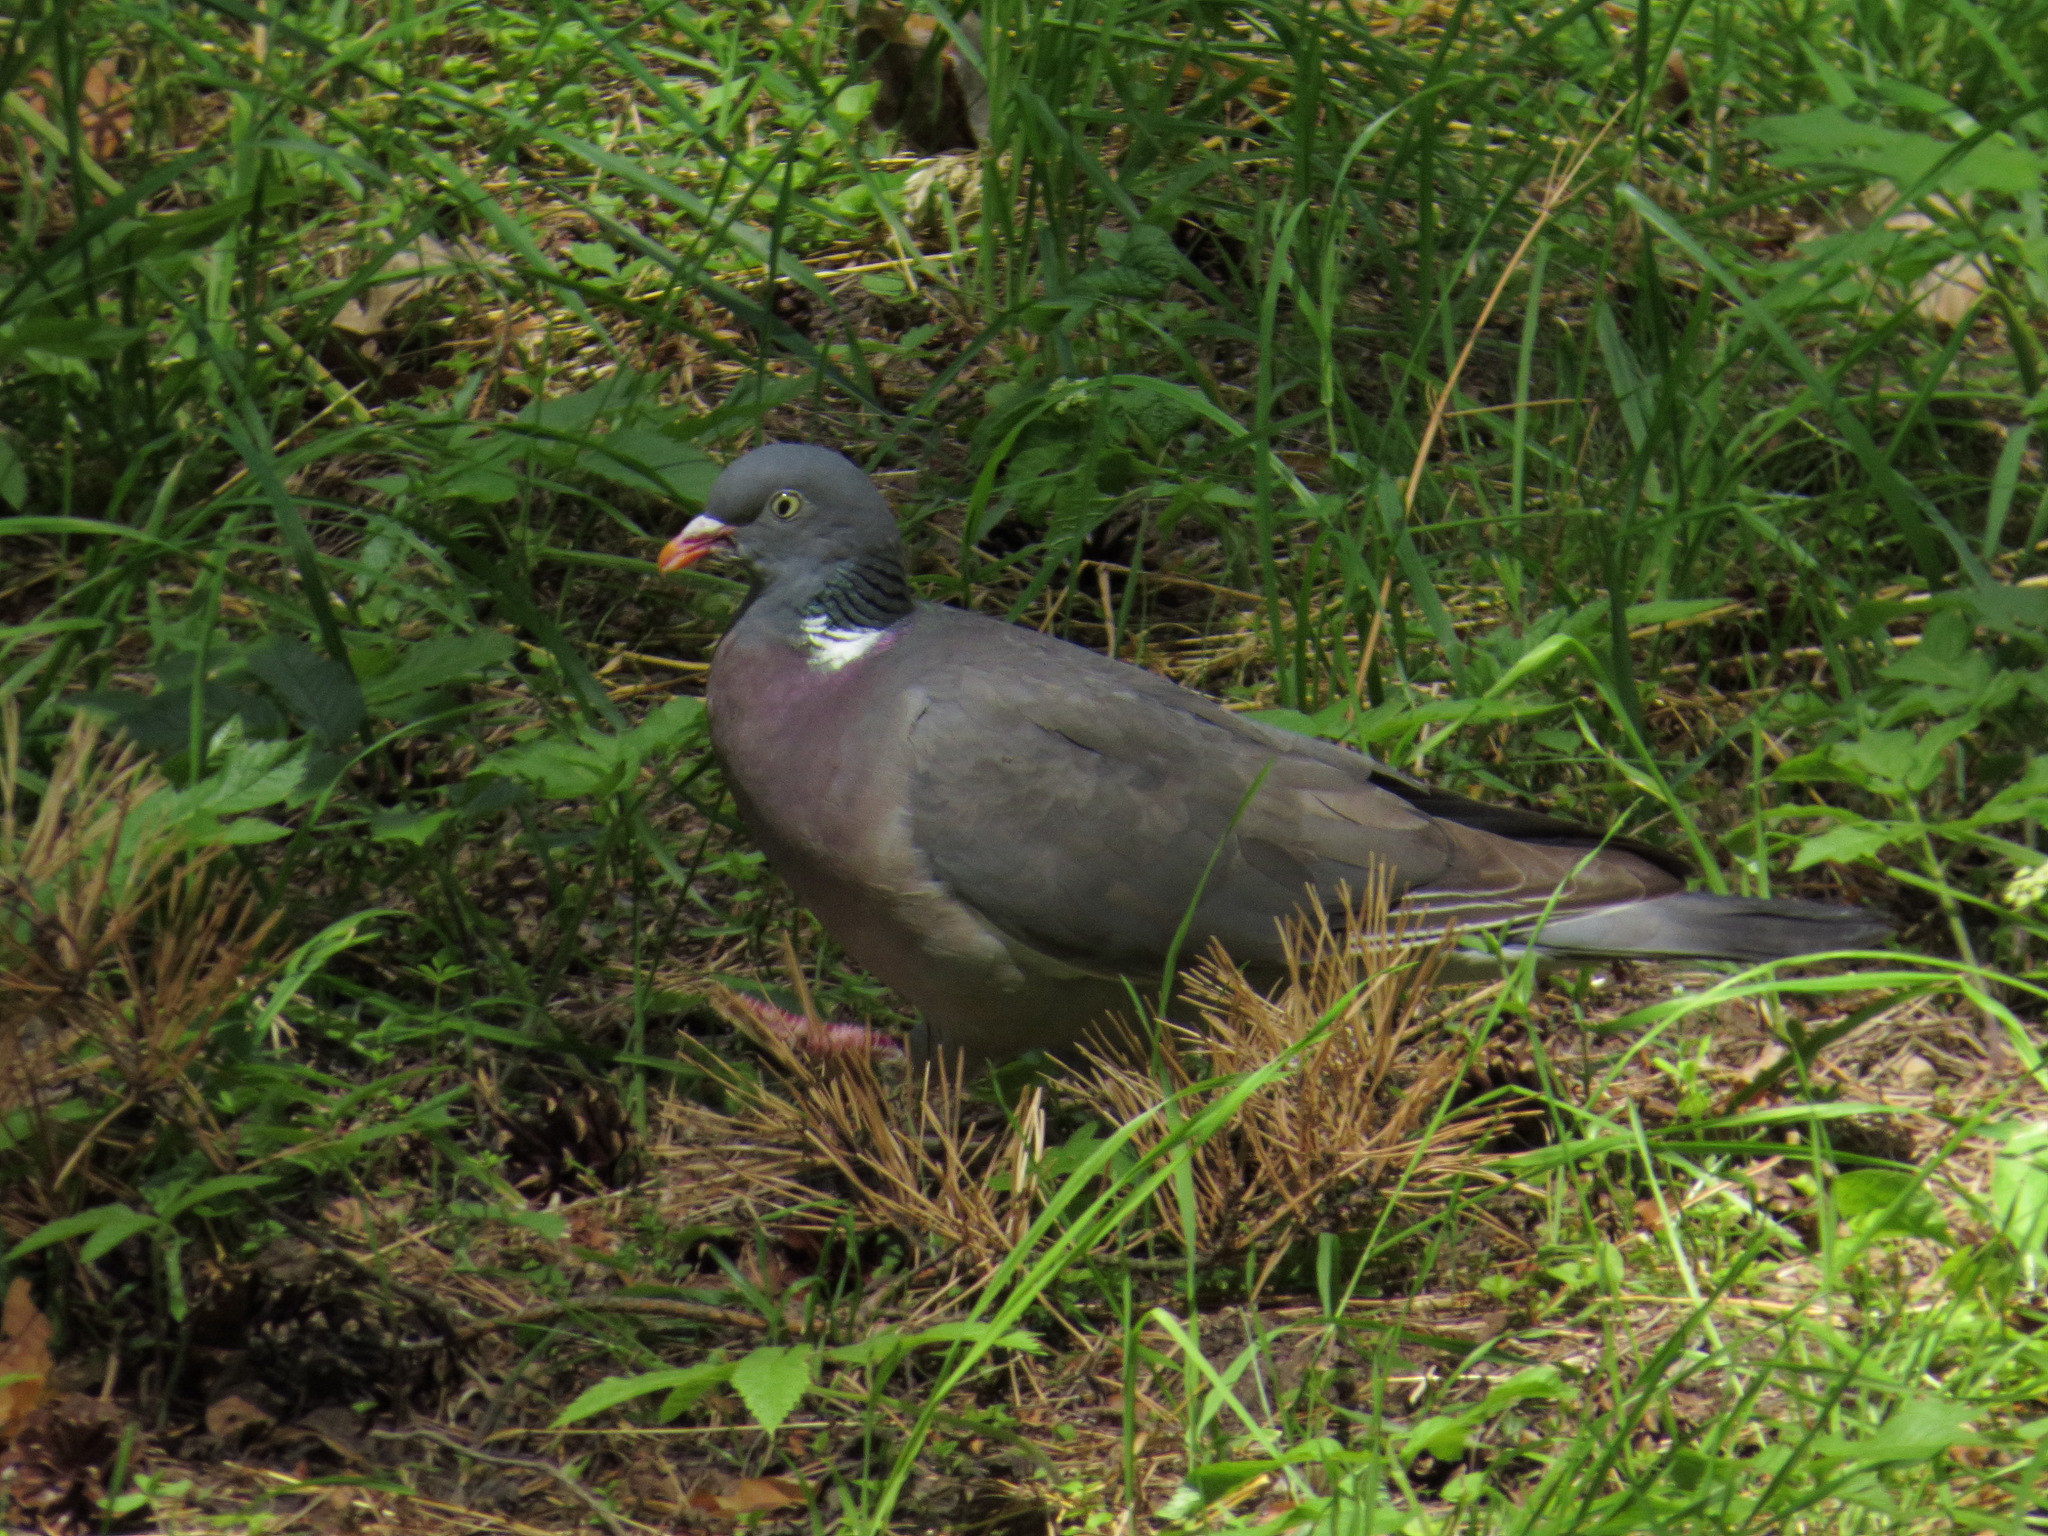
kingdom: Animalia
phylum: Chordata
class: Aves
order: Columbiformes
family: Columbidae
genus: Columba
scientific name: Columba palumbus
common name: Common wood pigeon
